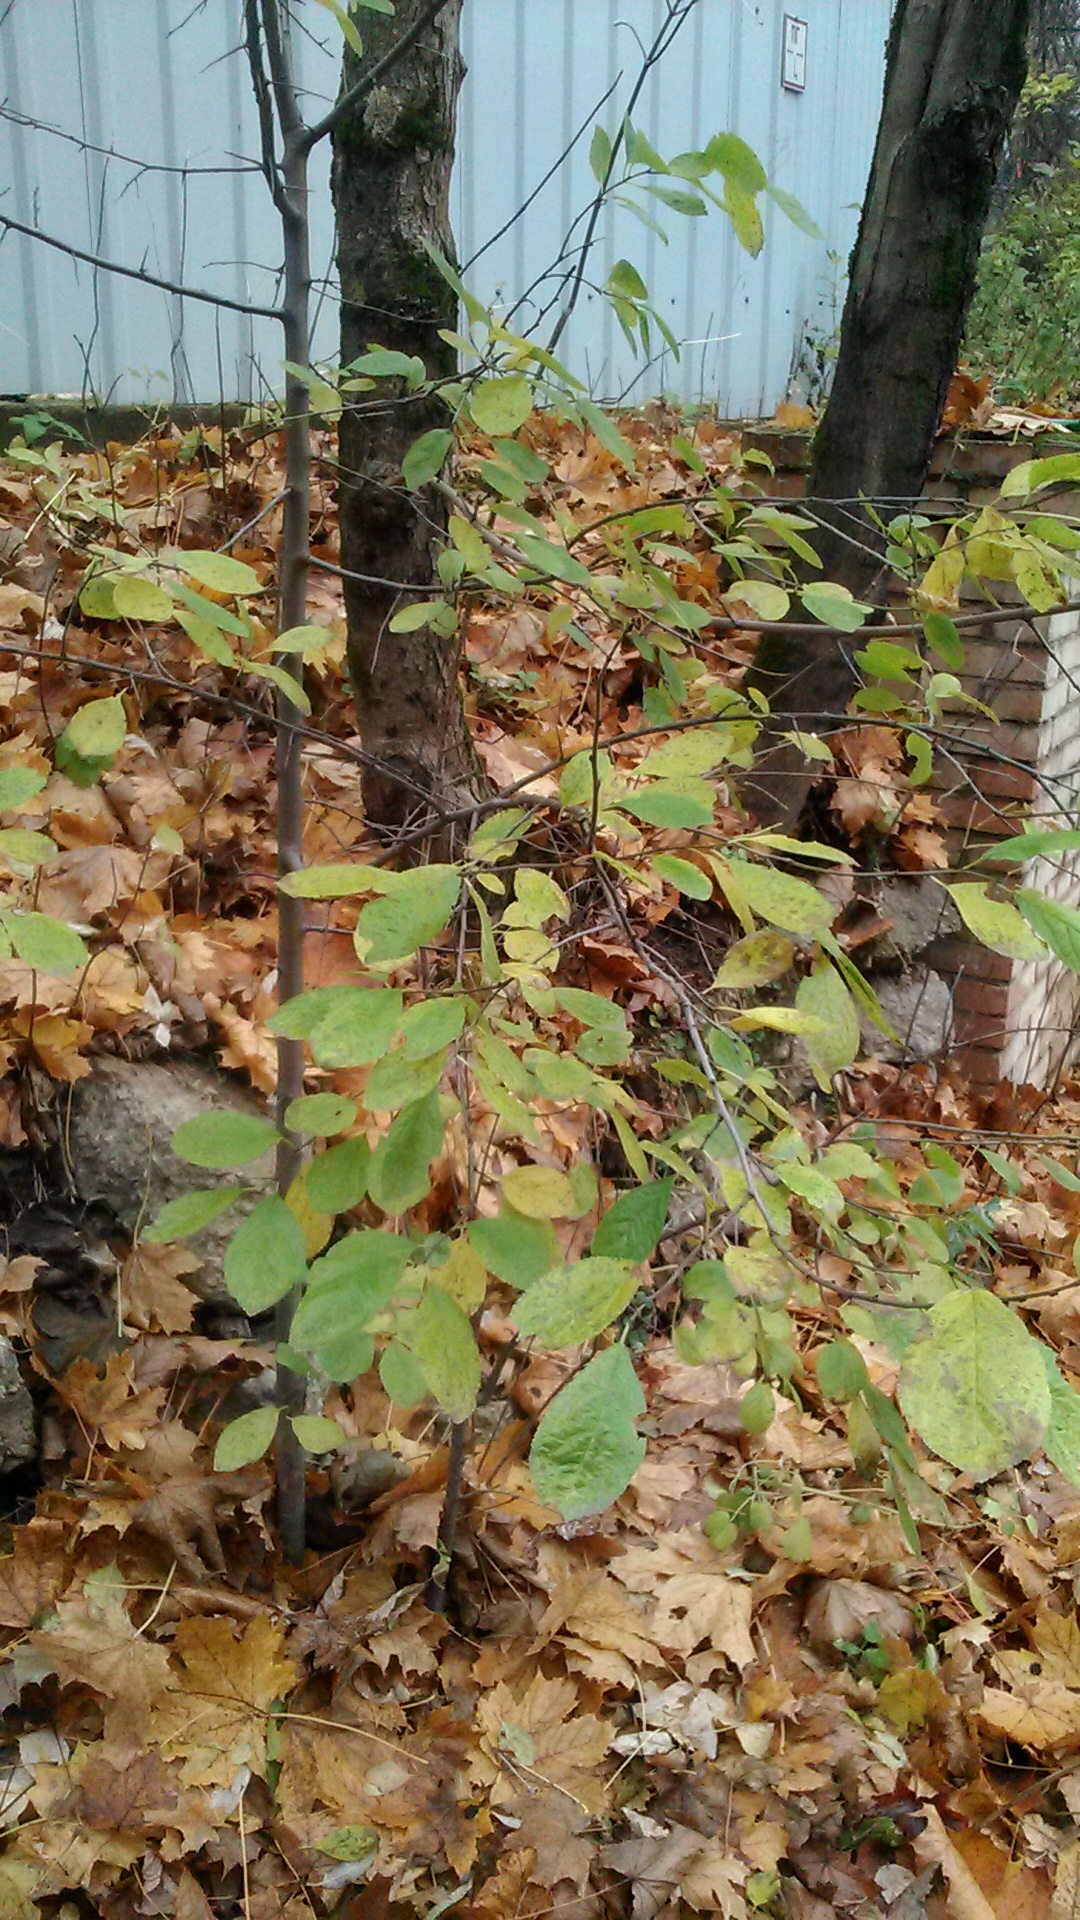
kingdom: Plantae
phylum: Tracheophyta
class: Magnoliopsida
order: Rosales
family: Rosaceae
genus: Prunus
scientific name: Prunus padus
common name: Bird cherry
